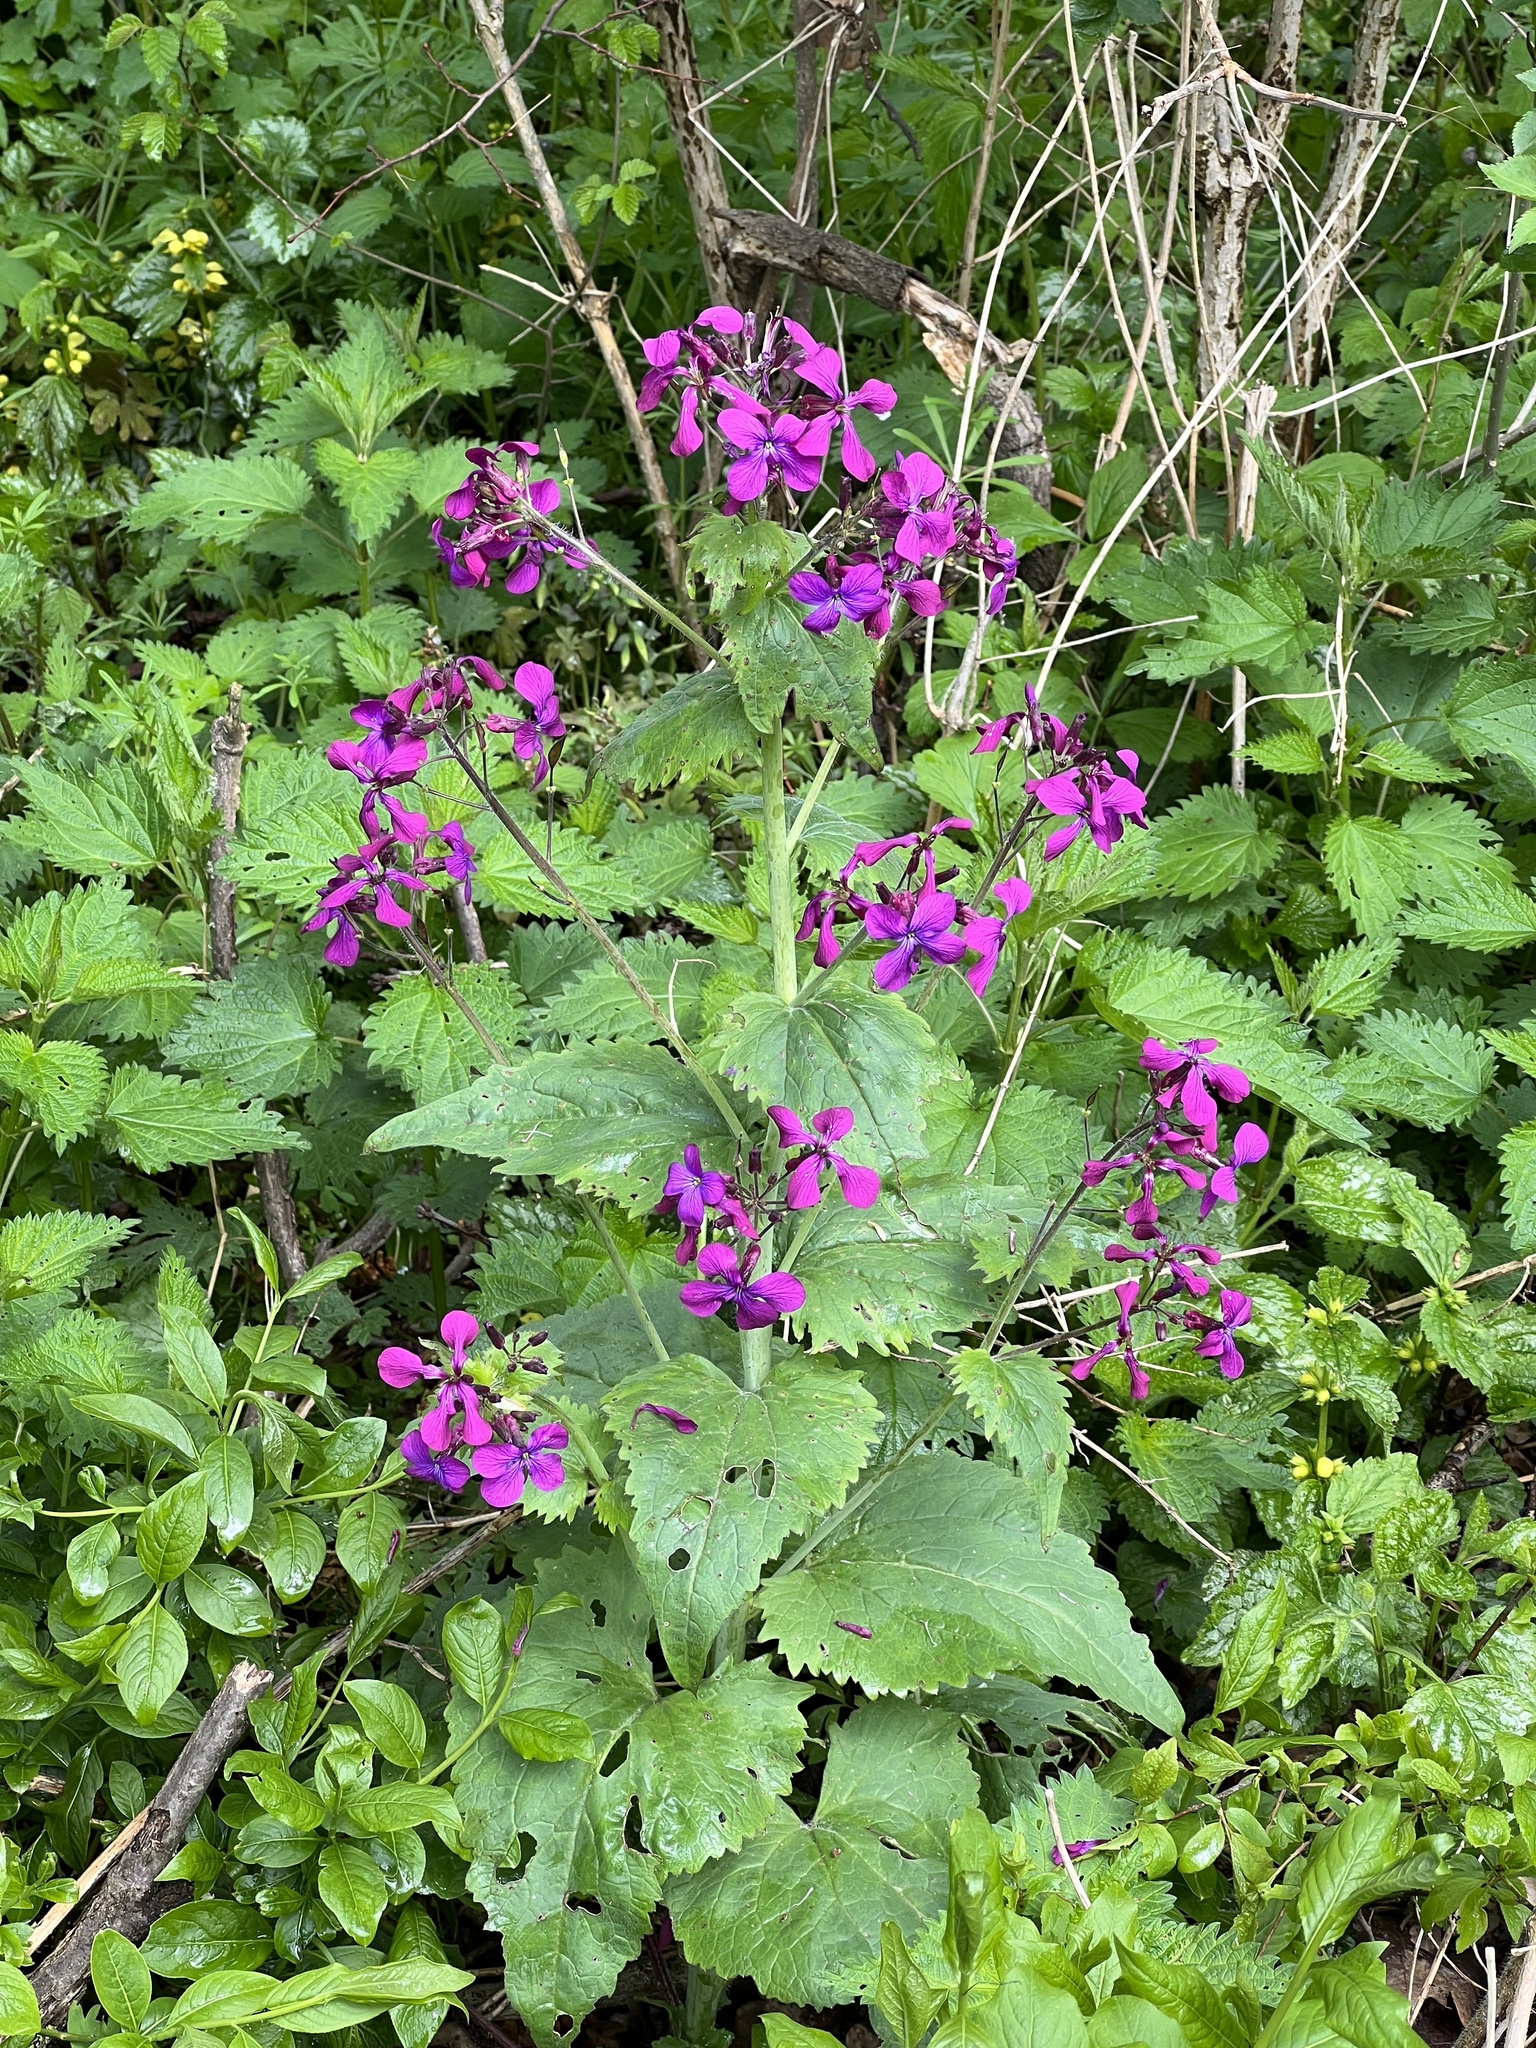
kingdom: Plantae
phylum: Tracheophyta
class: Magnoliopsida
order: Brassicales
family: Brassicaceae
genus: Lunaria
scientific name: Lunaria annua
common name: Honesty
